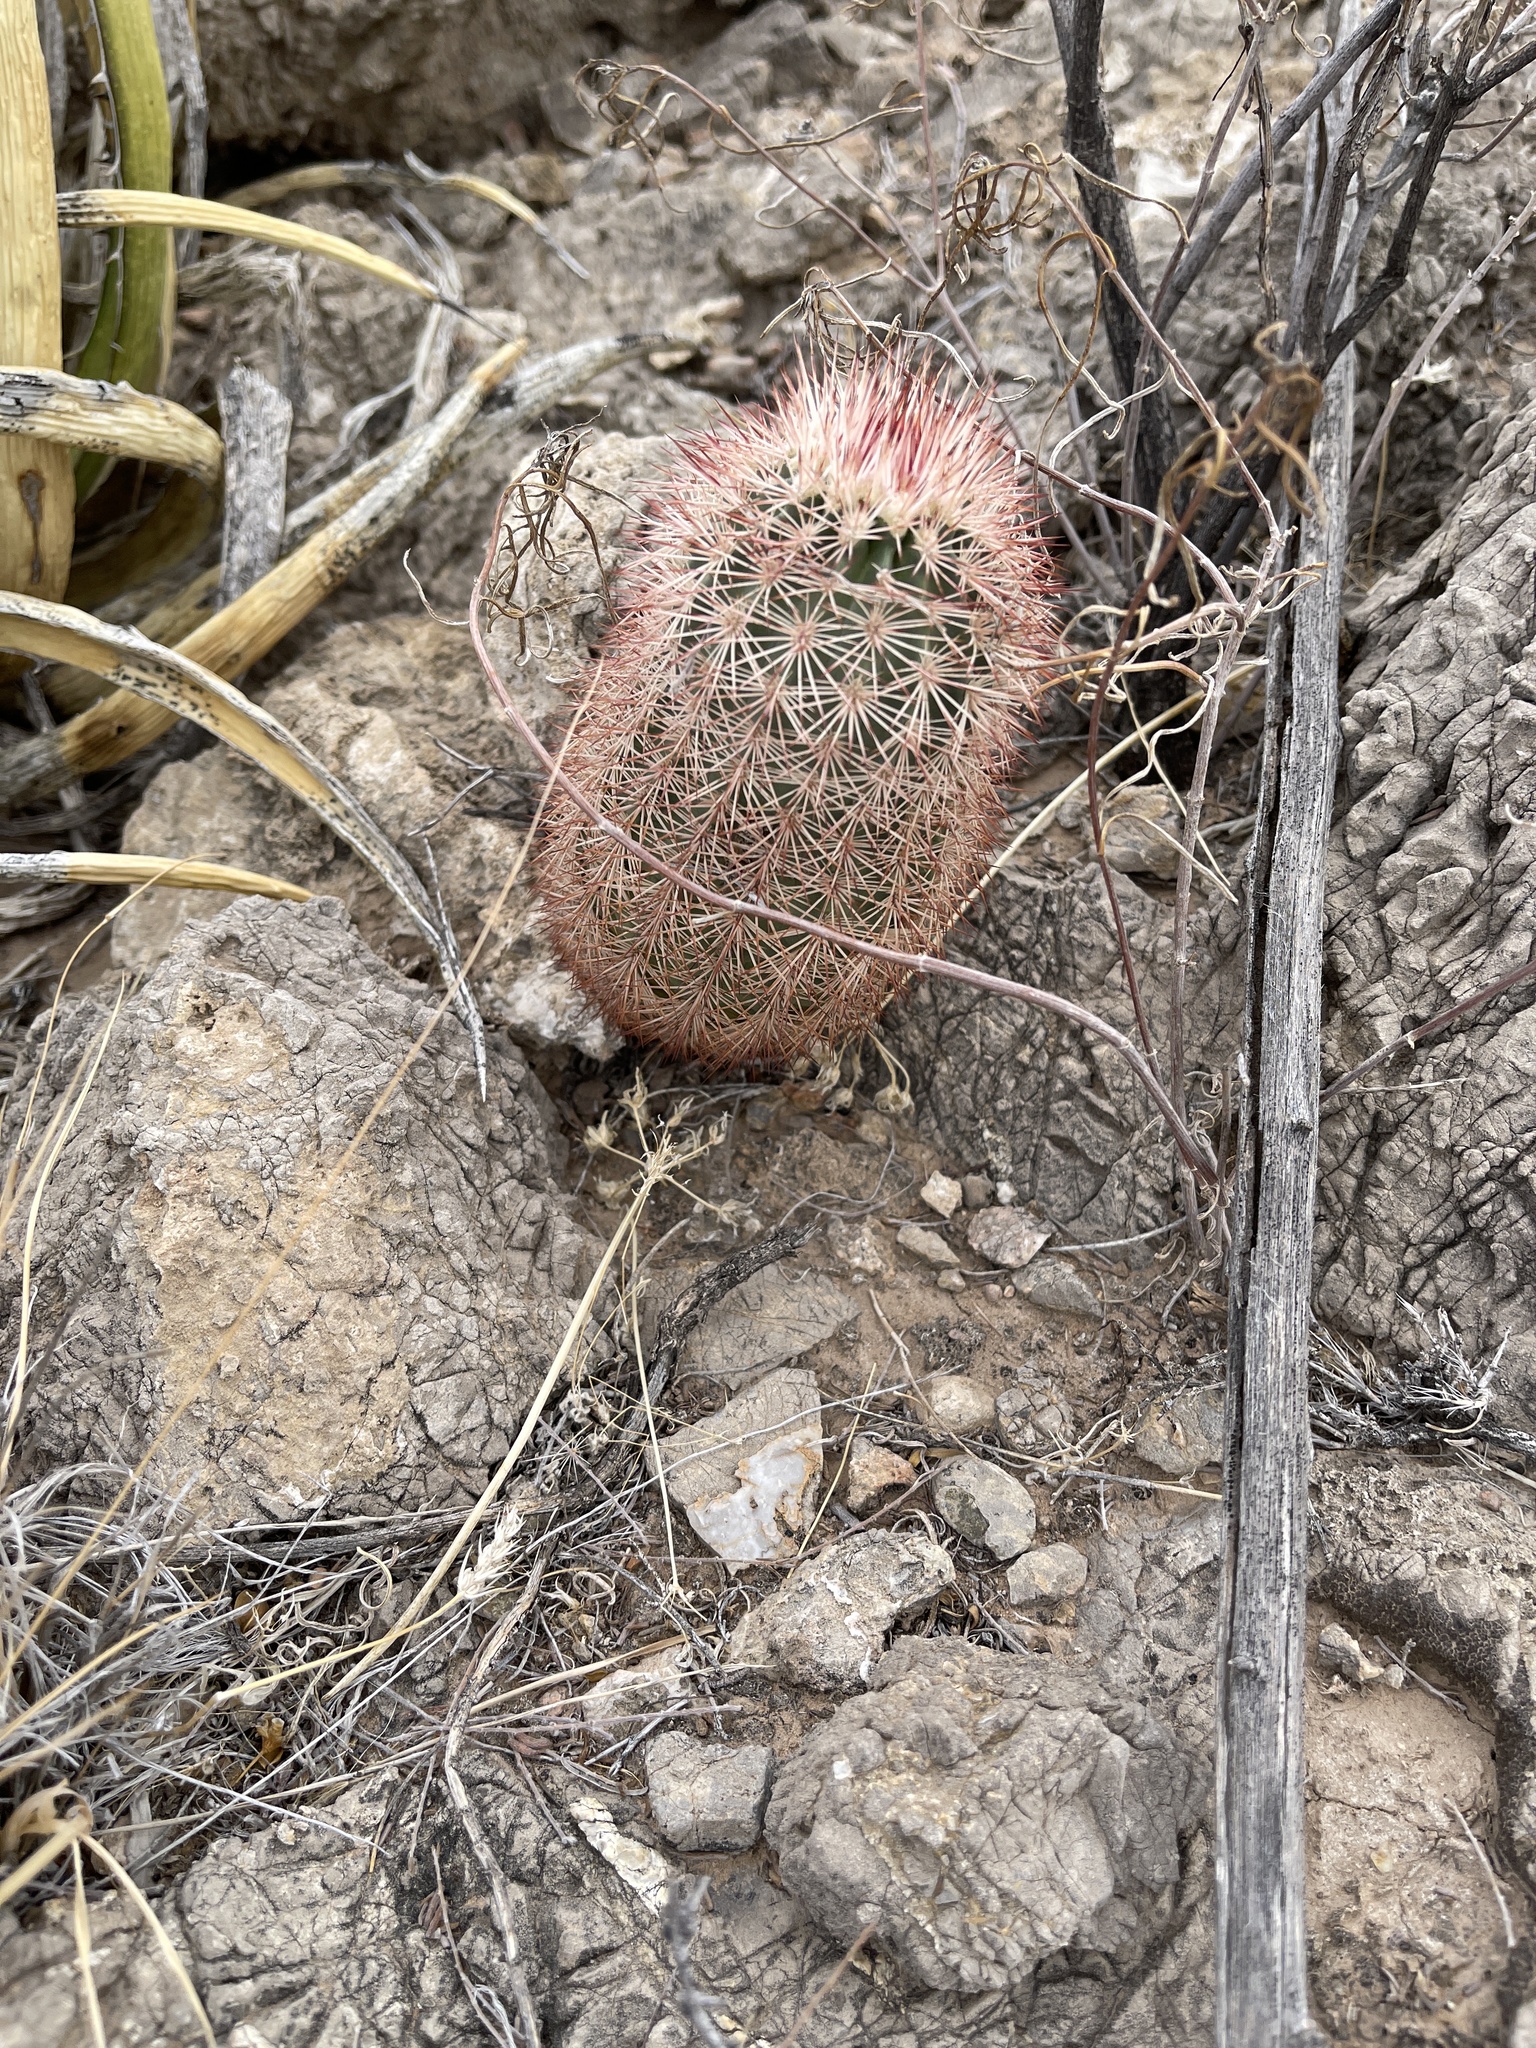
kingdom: Plantae
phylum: Tracheophyta
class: Magnoliopsida
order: Caryophyllales
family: Cactaceae
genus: Echinocereus
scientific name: Echinocereus dasyacanthus
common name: Spiny hedgehog cactus
